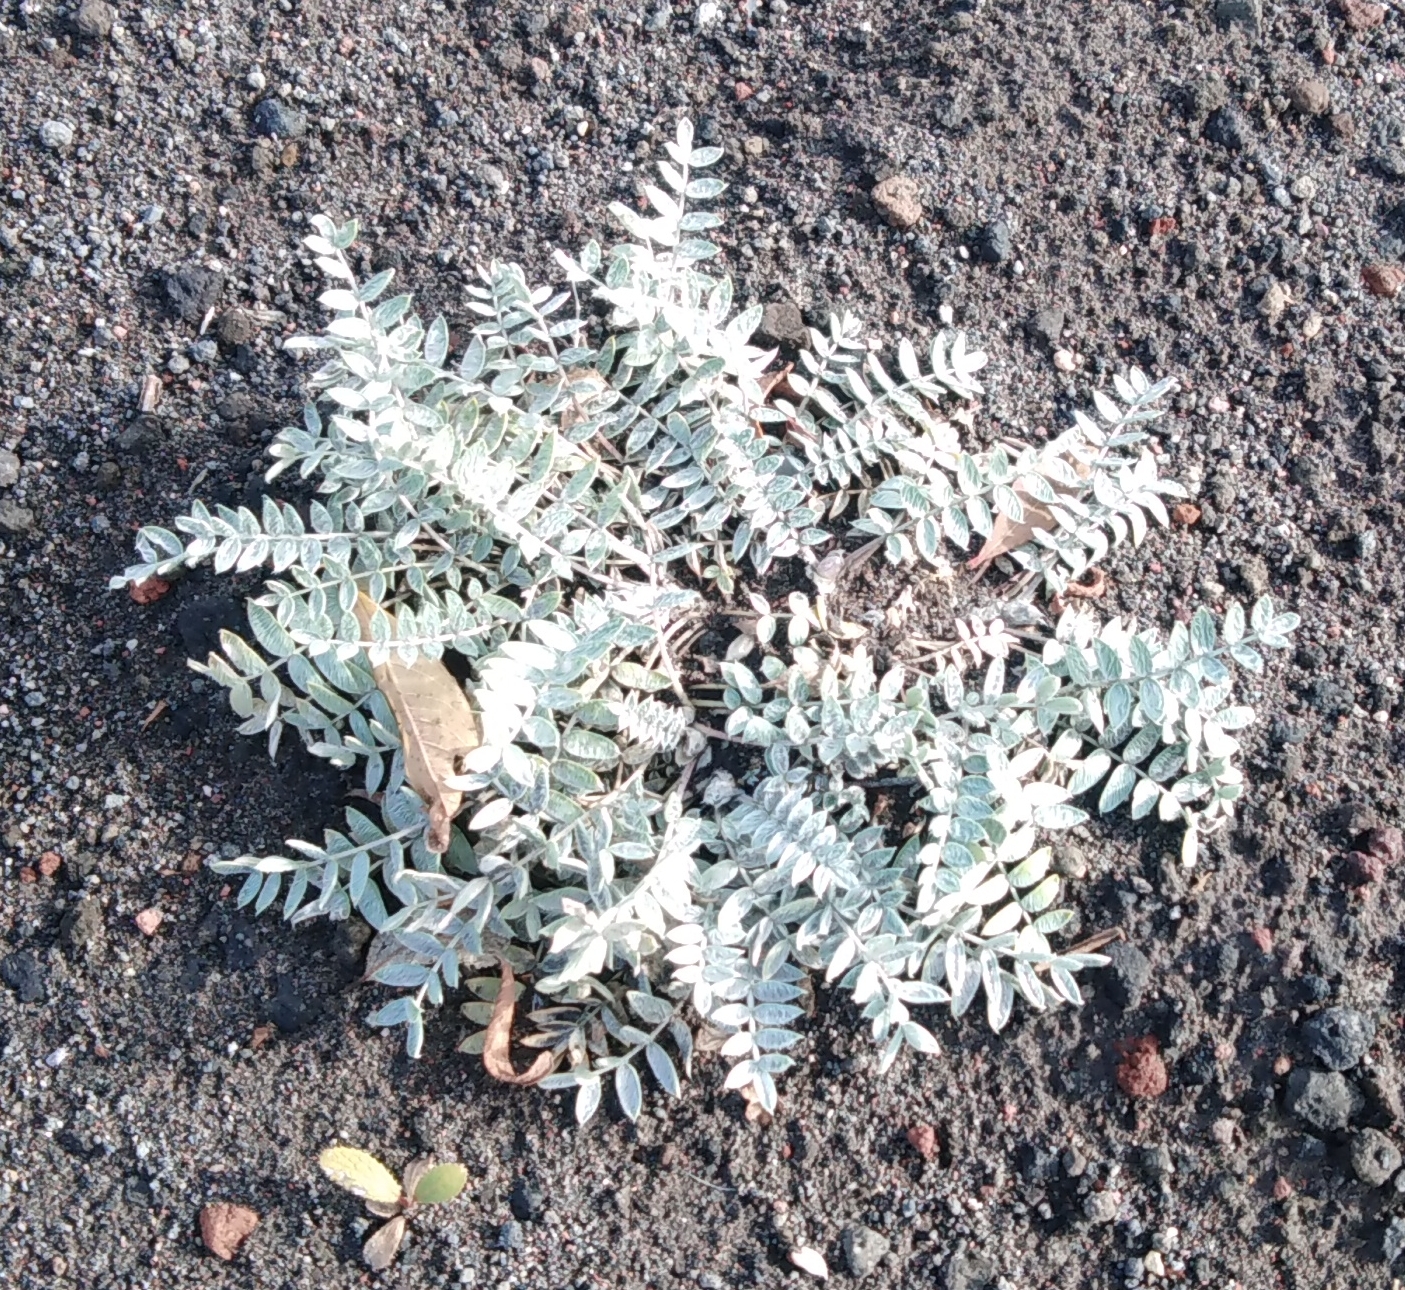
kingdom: Plantae
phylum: Tracheophyta
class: Magnoliopsida
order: Fabales
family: Fabaceae
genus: Oxytropis
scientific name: Oxytropis exserta
